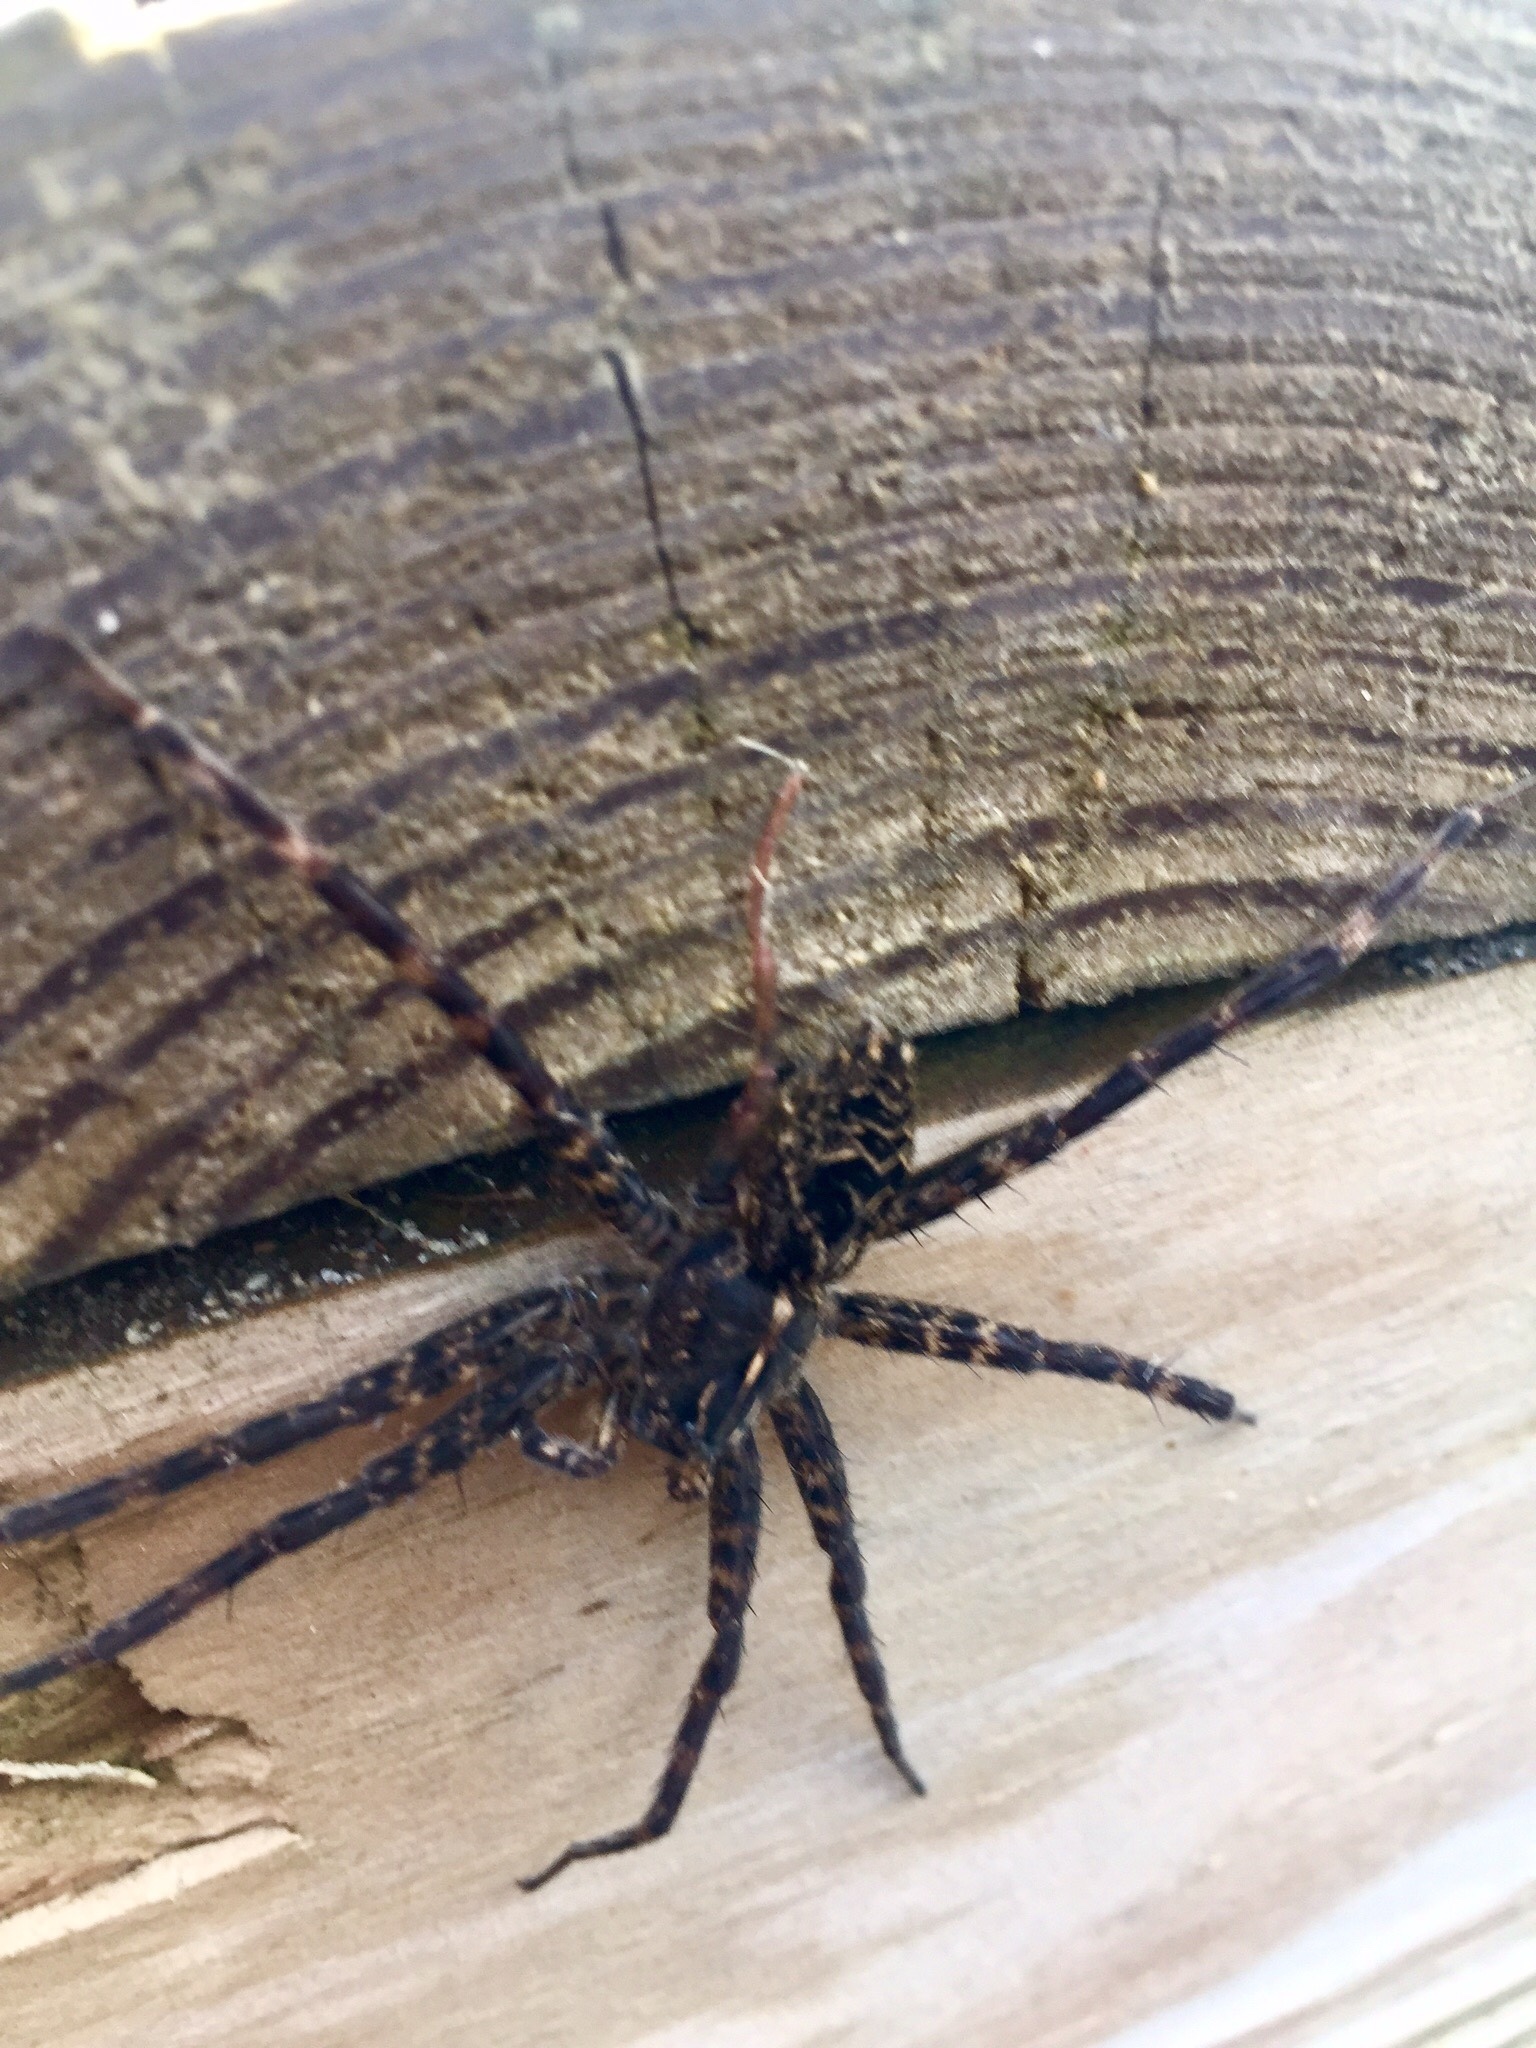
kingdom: Animalia
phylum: Arthropoda
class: Arachnida
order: Araneae
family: Pisauridae
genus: Dolomedes
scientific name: Dolomedes scriptus
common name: Striped fishing spider
